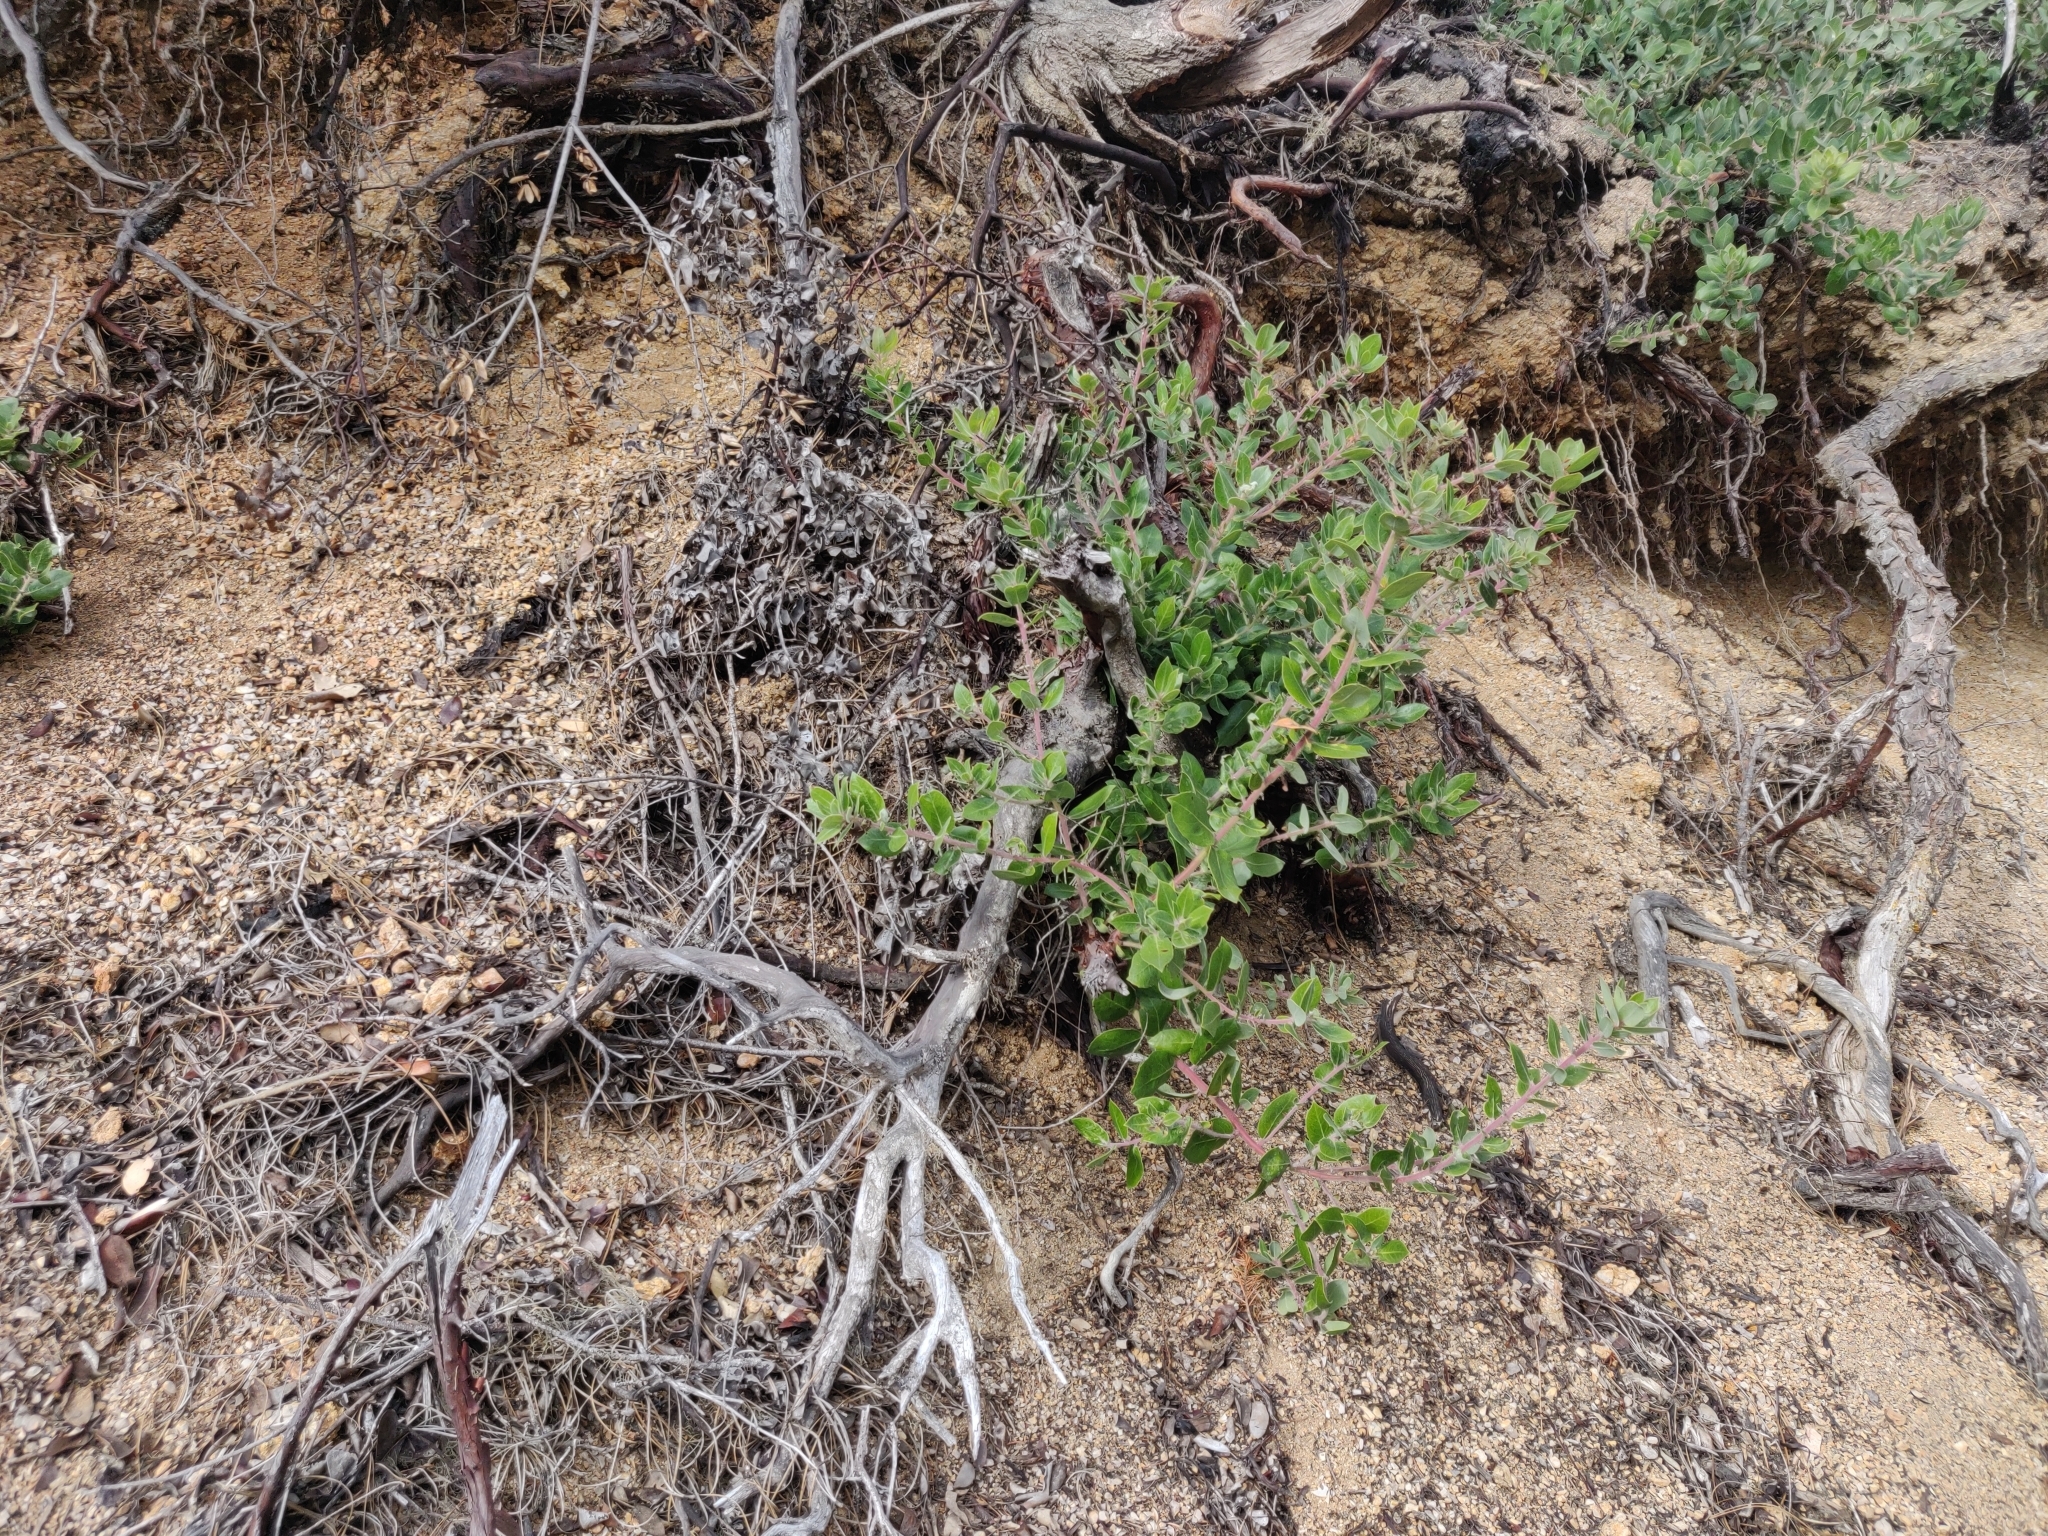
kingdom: Plantae
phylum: Tracheophyta
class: Magnoliopsida
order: Ericales
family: Ericaceae
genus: Arctostaphylos
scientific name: Arctostaphylos crustacea
